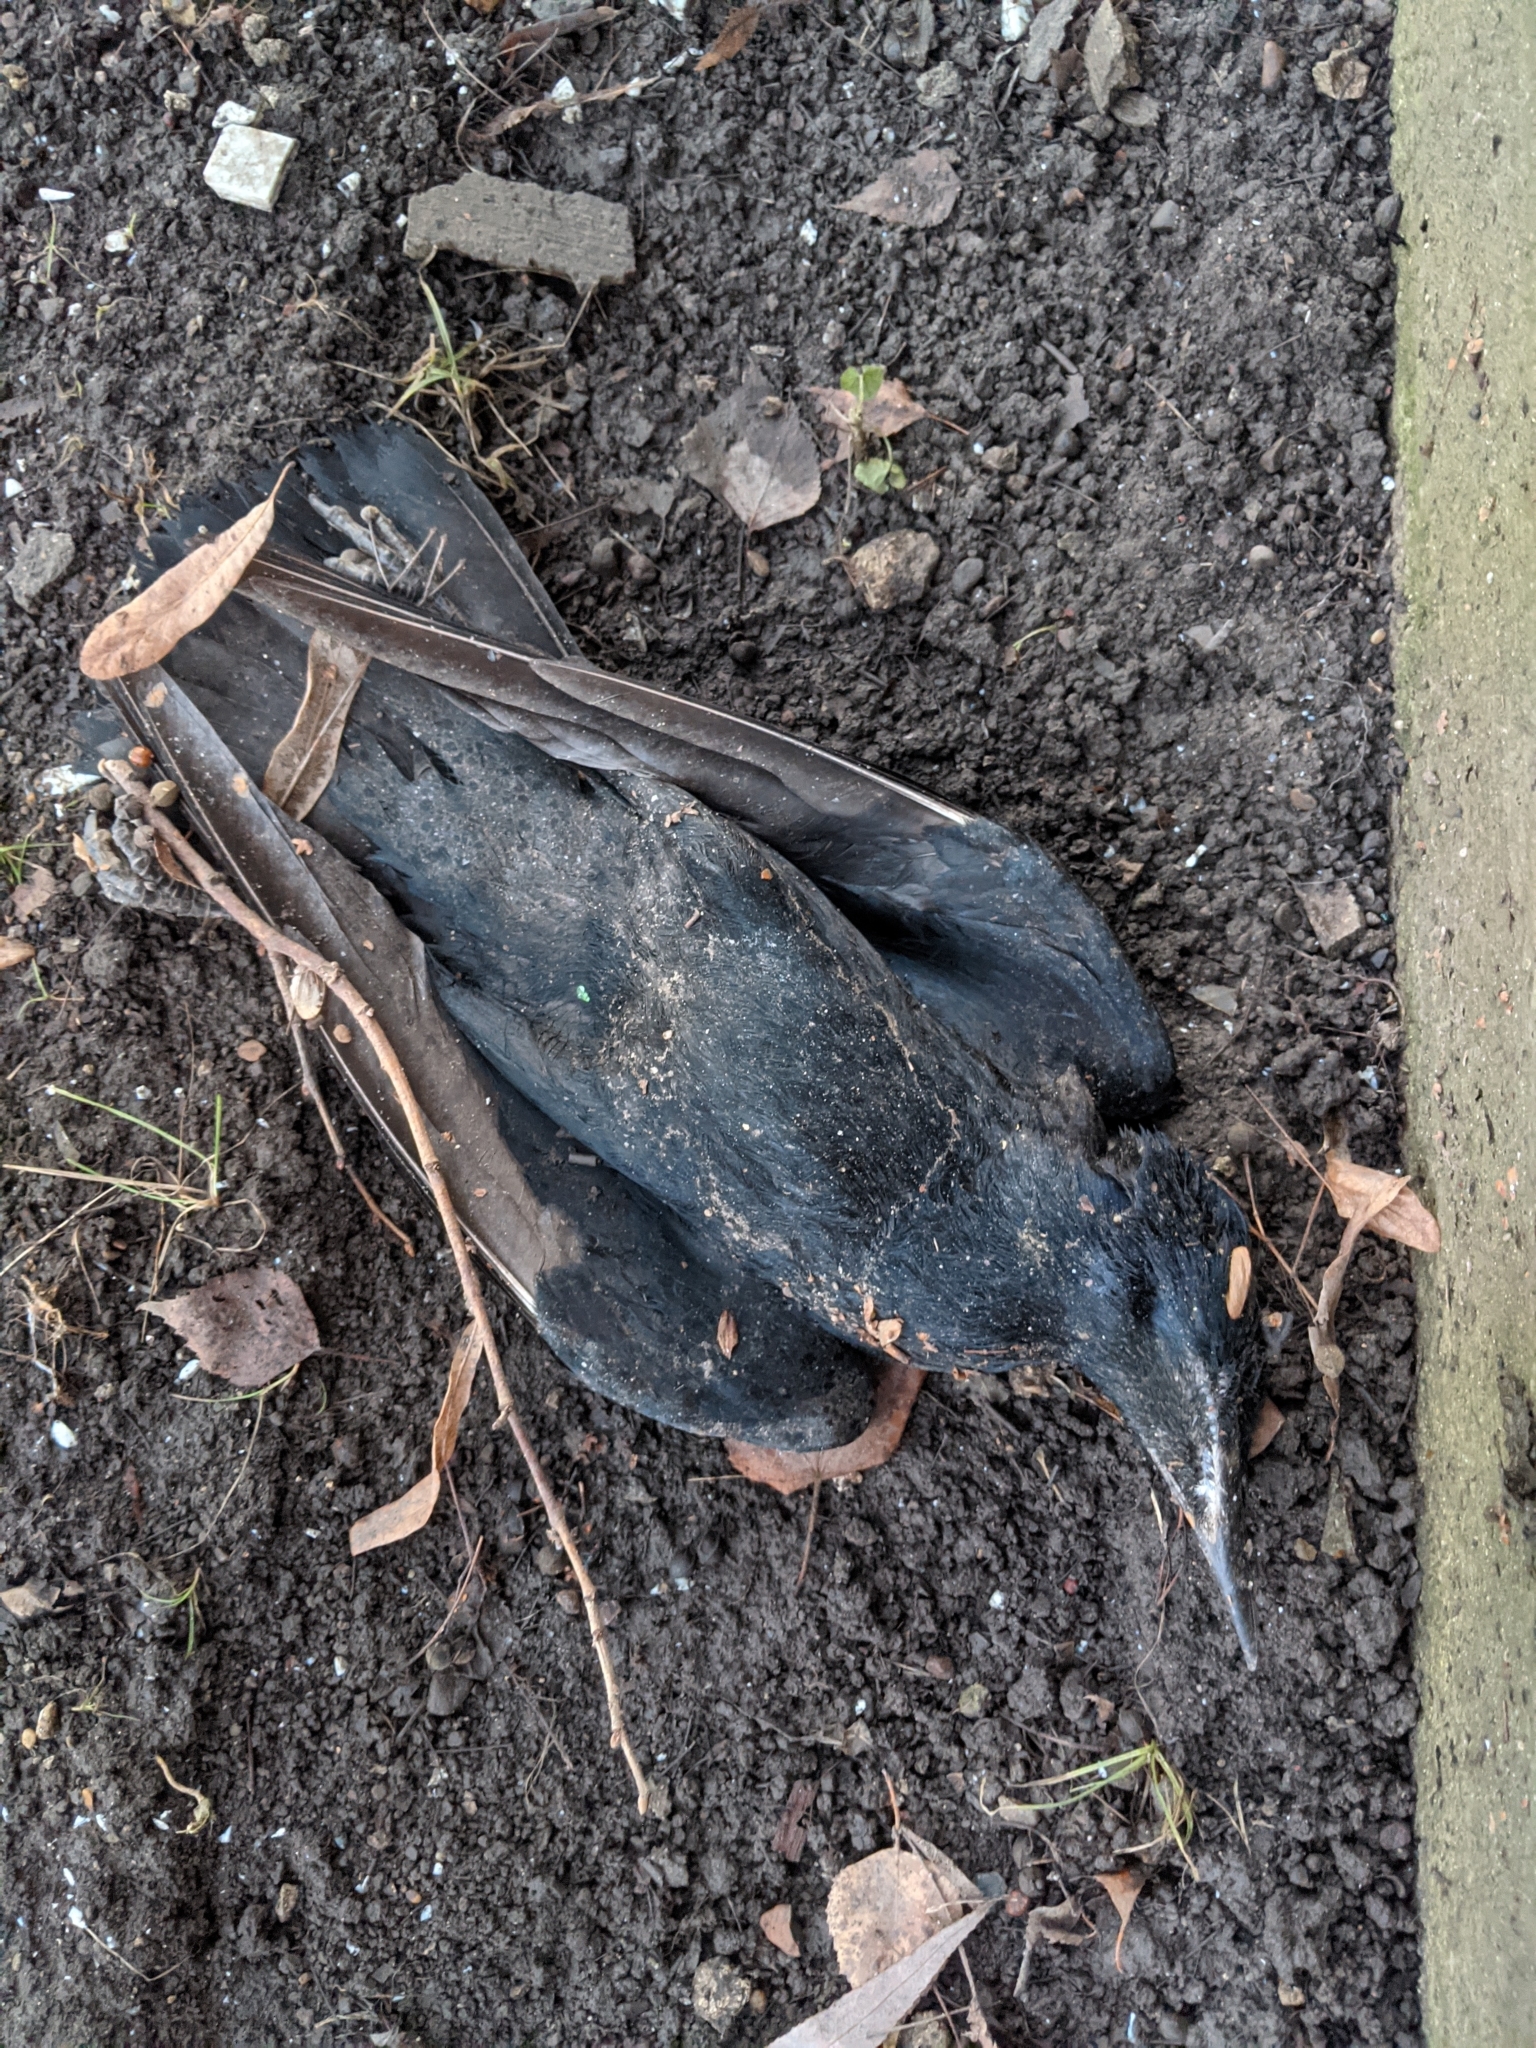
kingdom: Animalia
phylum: Chordata
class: Aves
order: Passeriformes
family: Corvidae
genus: Corvus
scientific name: Corvus frugilegus
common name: Rook
